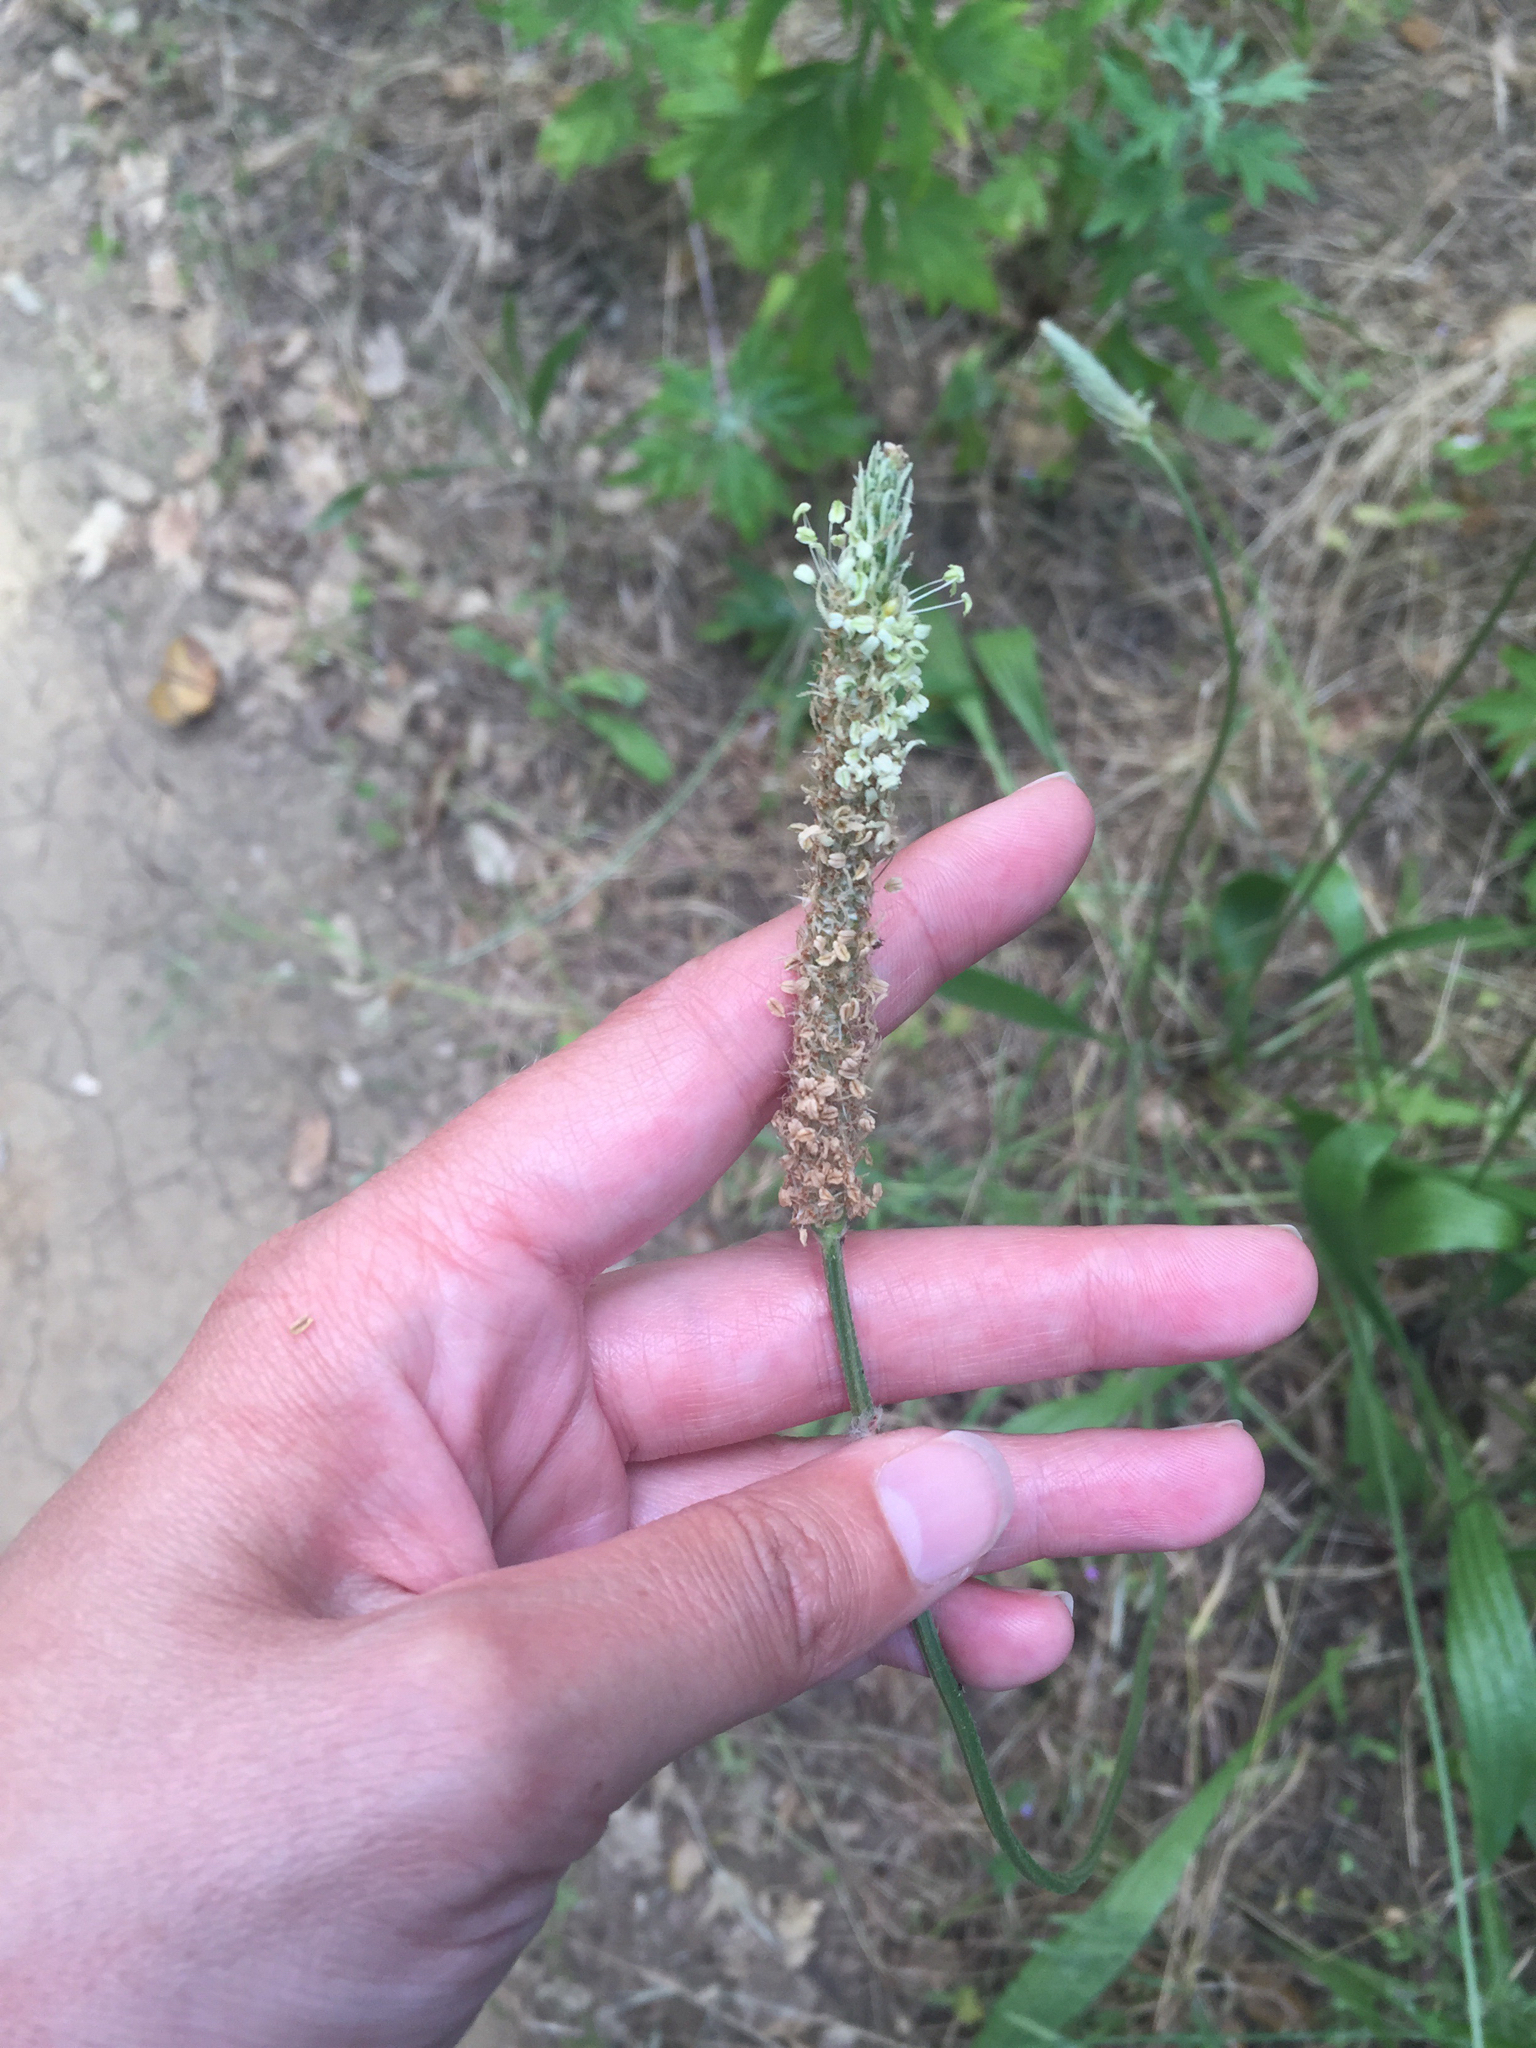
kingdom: Plantae
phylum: Tracheophyta
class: Magnoliopsida
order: Lamiales
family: Plantaginaceae
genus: Plantago
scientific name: Plantago lanceolata
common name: Ribwort plantain
